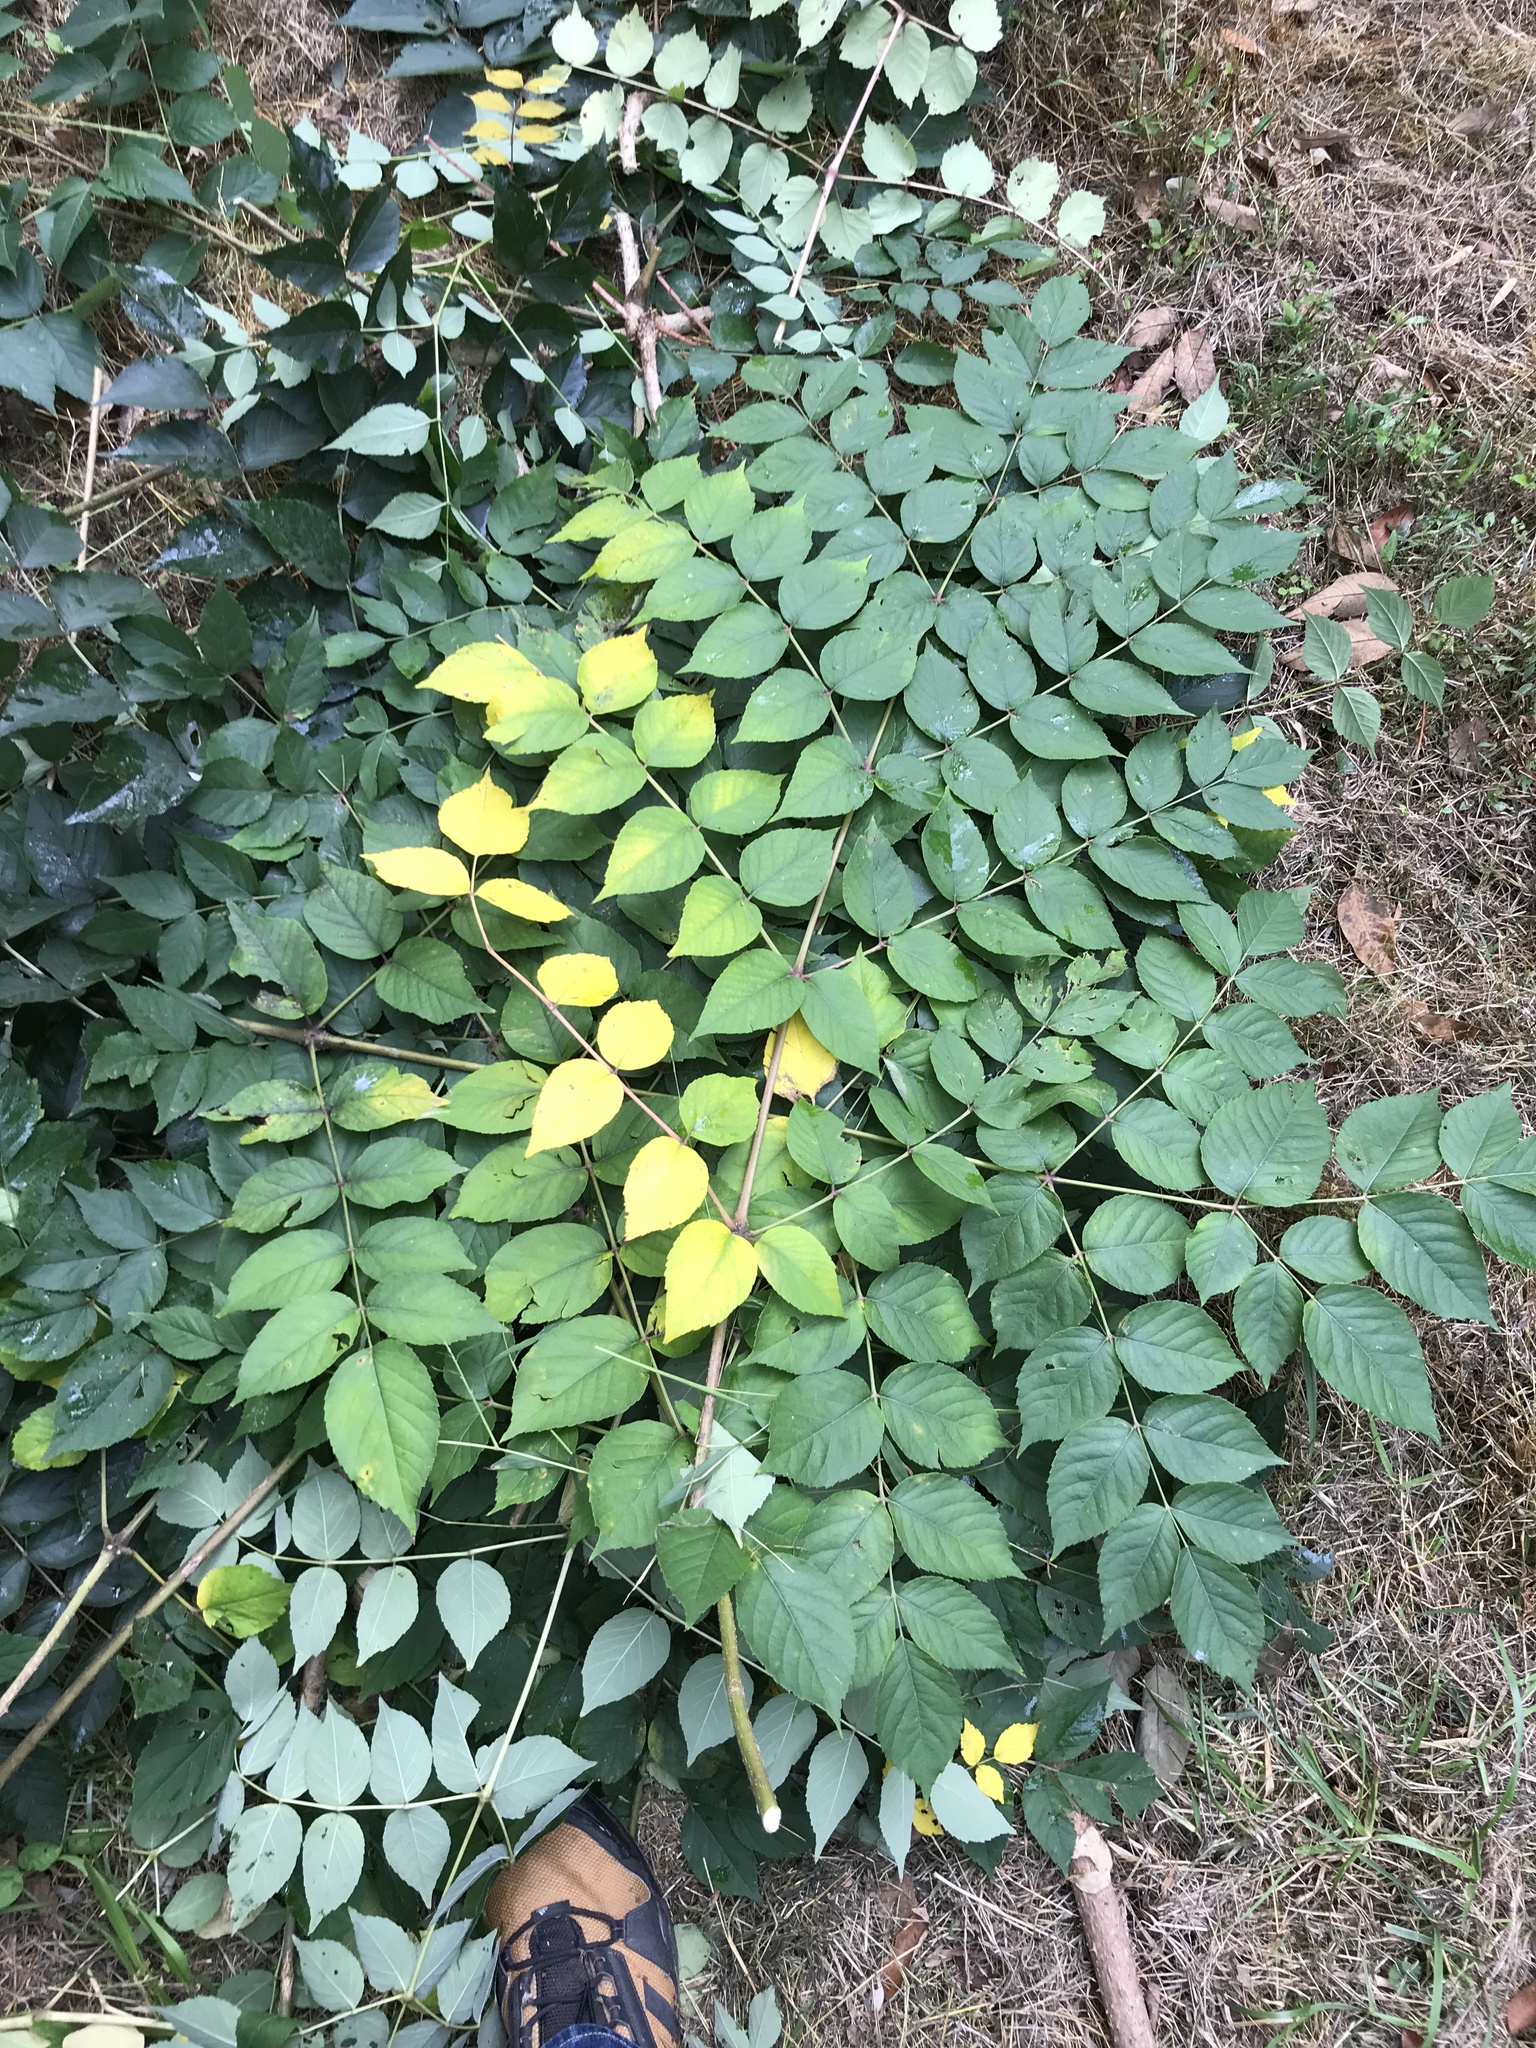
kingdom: Plantae
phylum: Tracheophyta
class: Magnoliopsida
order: Apiales
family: Araliaceae
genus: Aralia
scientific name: Aralia elata
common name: Japanese angelica-tree
